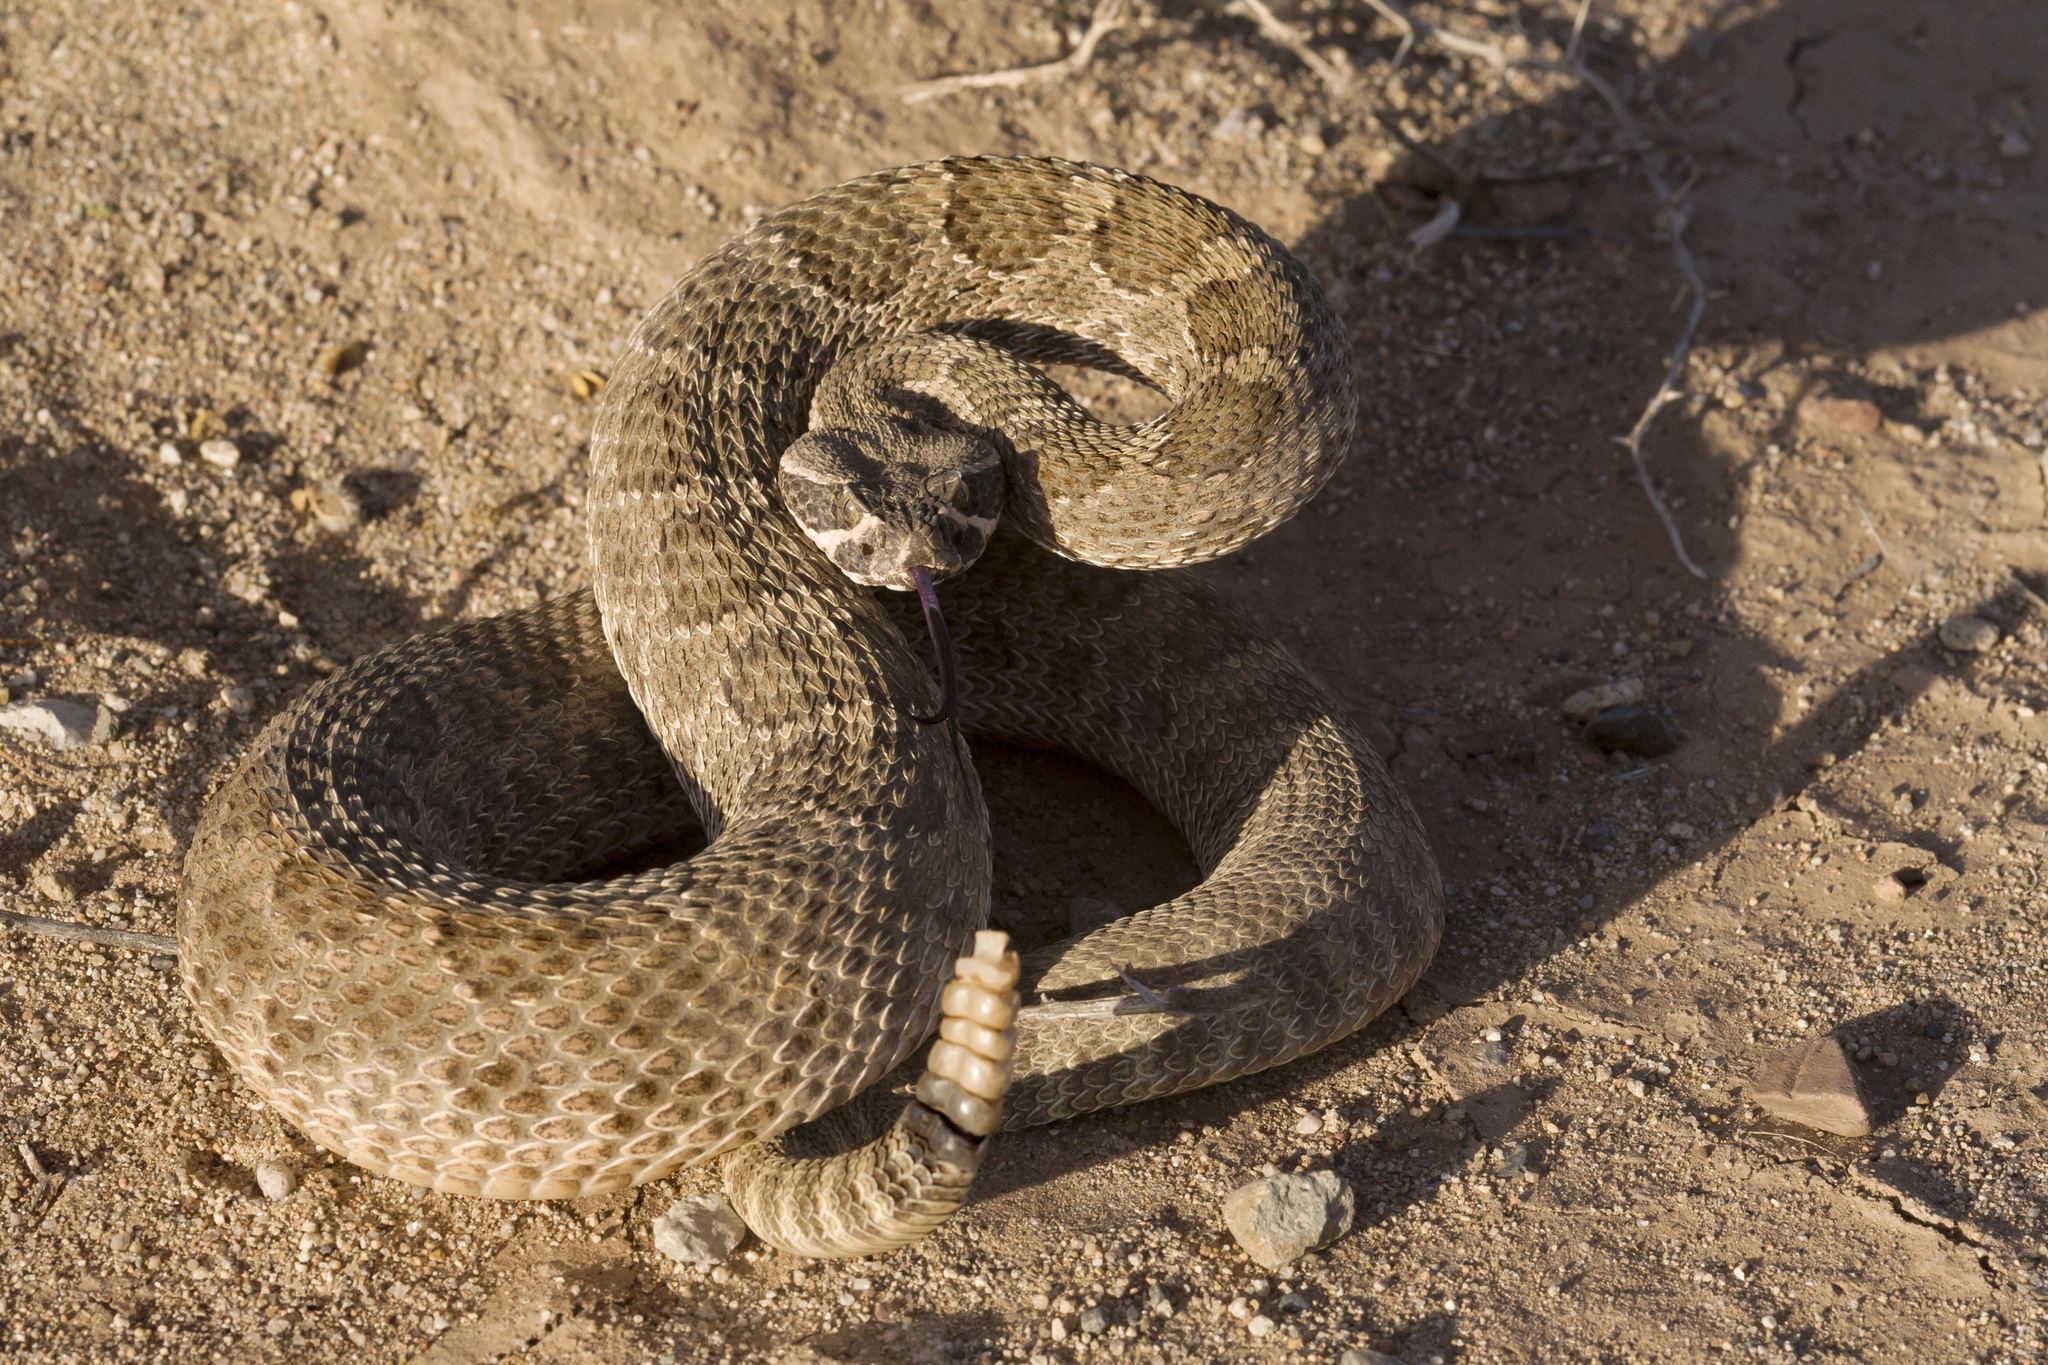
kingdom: Animalia
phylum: Chordata
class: Squamata
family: Viperidae
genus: Crotalus
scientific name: Crotalus viridis
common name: Prairie rattlesnake
